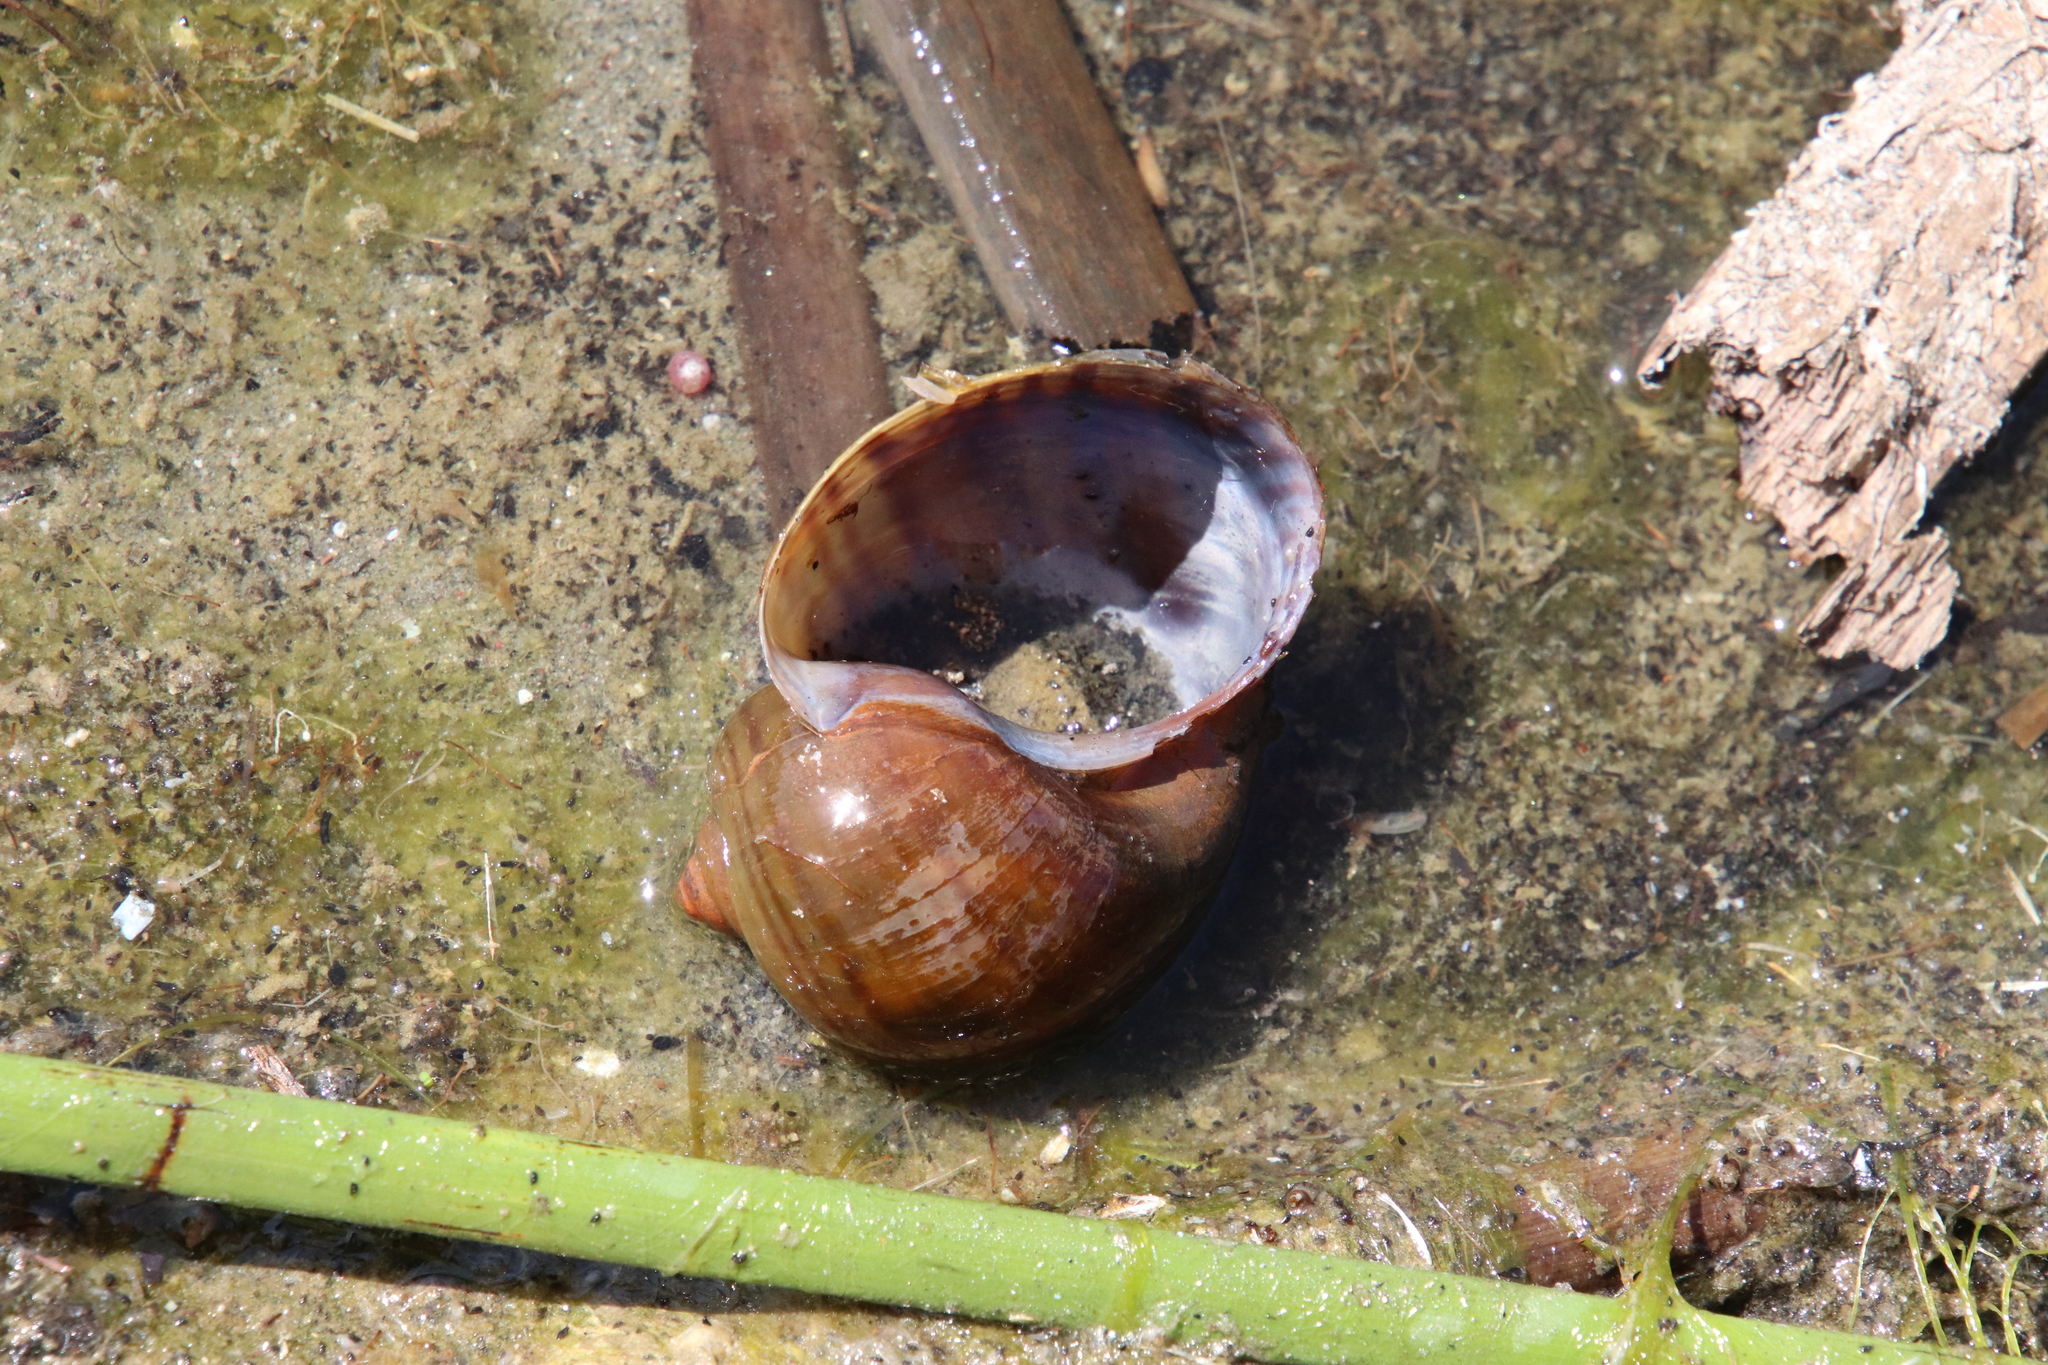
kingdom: Animalia
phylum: Mollusca
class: Gastropoda
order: Architaenioglossa
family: Ampullariidae
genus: Pomacea
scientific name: Pomacea canaliculata
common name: Channeled applesnail
